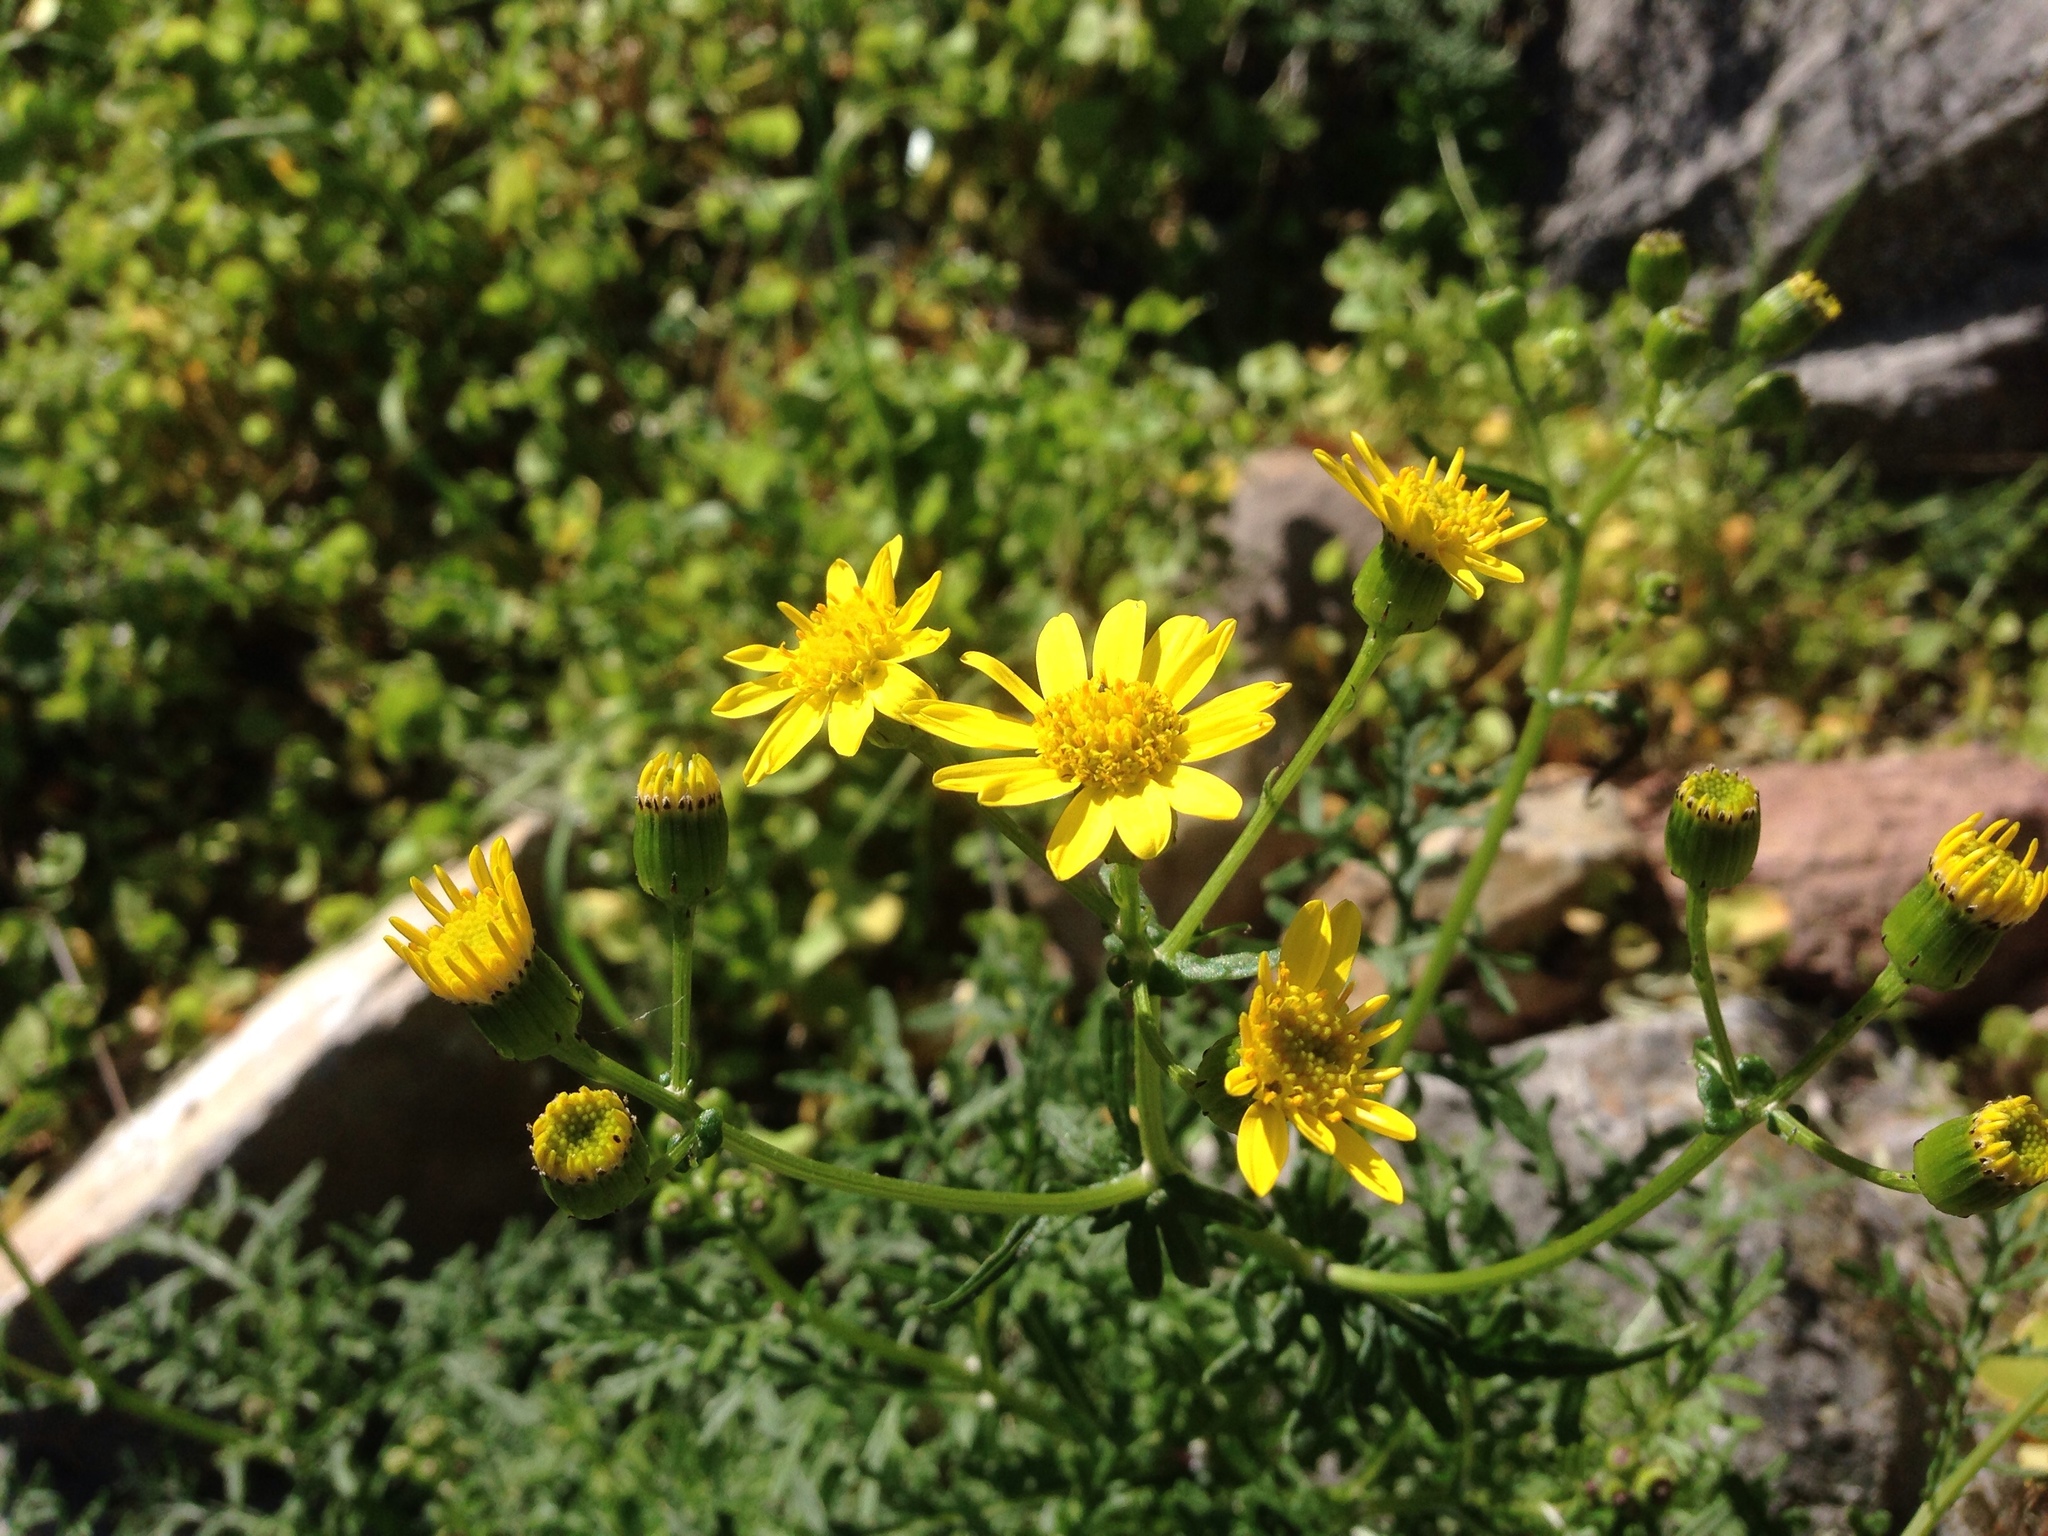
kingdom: Plantae
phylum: Tracheophyta
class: Magnoliopsida
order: Asterales
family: Asteraceae
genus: Senecio
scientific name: Senecio lyonii
